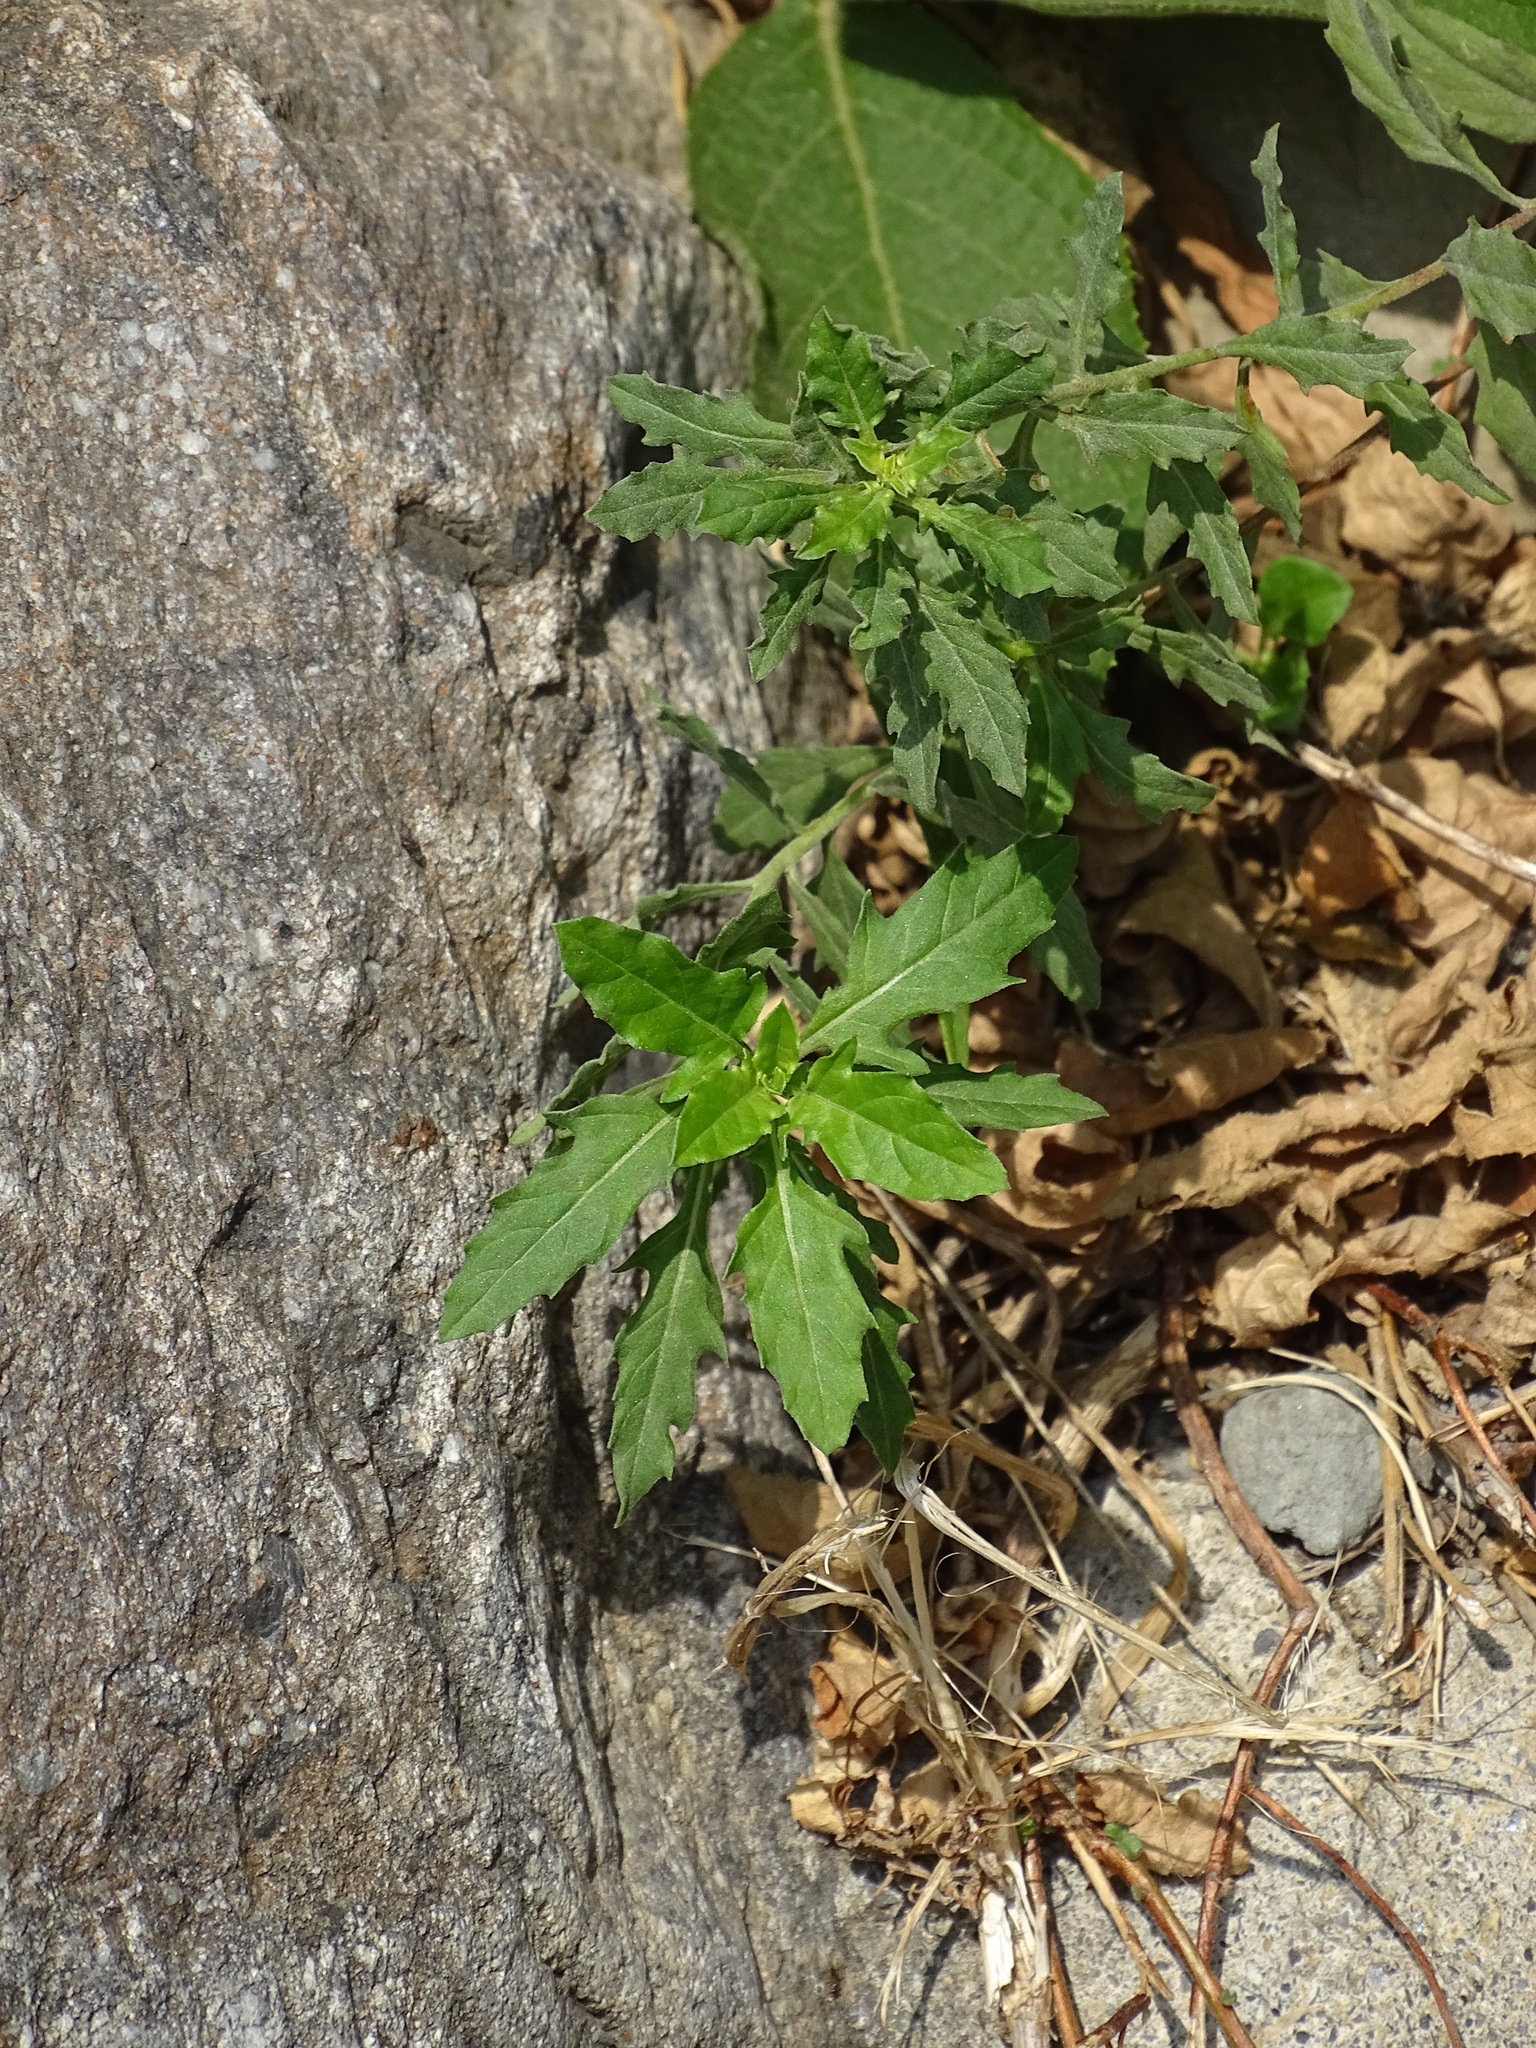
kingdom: Plantae
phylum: Tracheophyta
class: Magnoliopsida
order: Myrtales
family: Onagraceae
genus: Oenothera
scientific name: Oenothera speciosa
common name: White evening-primrose
